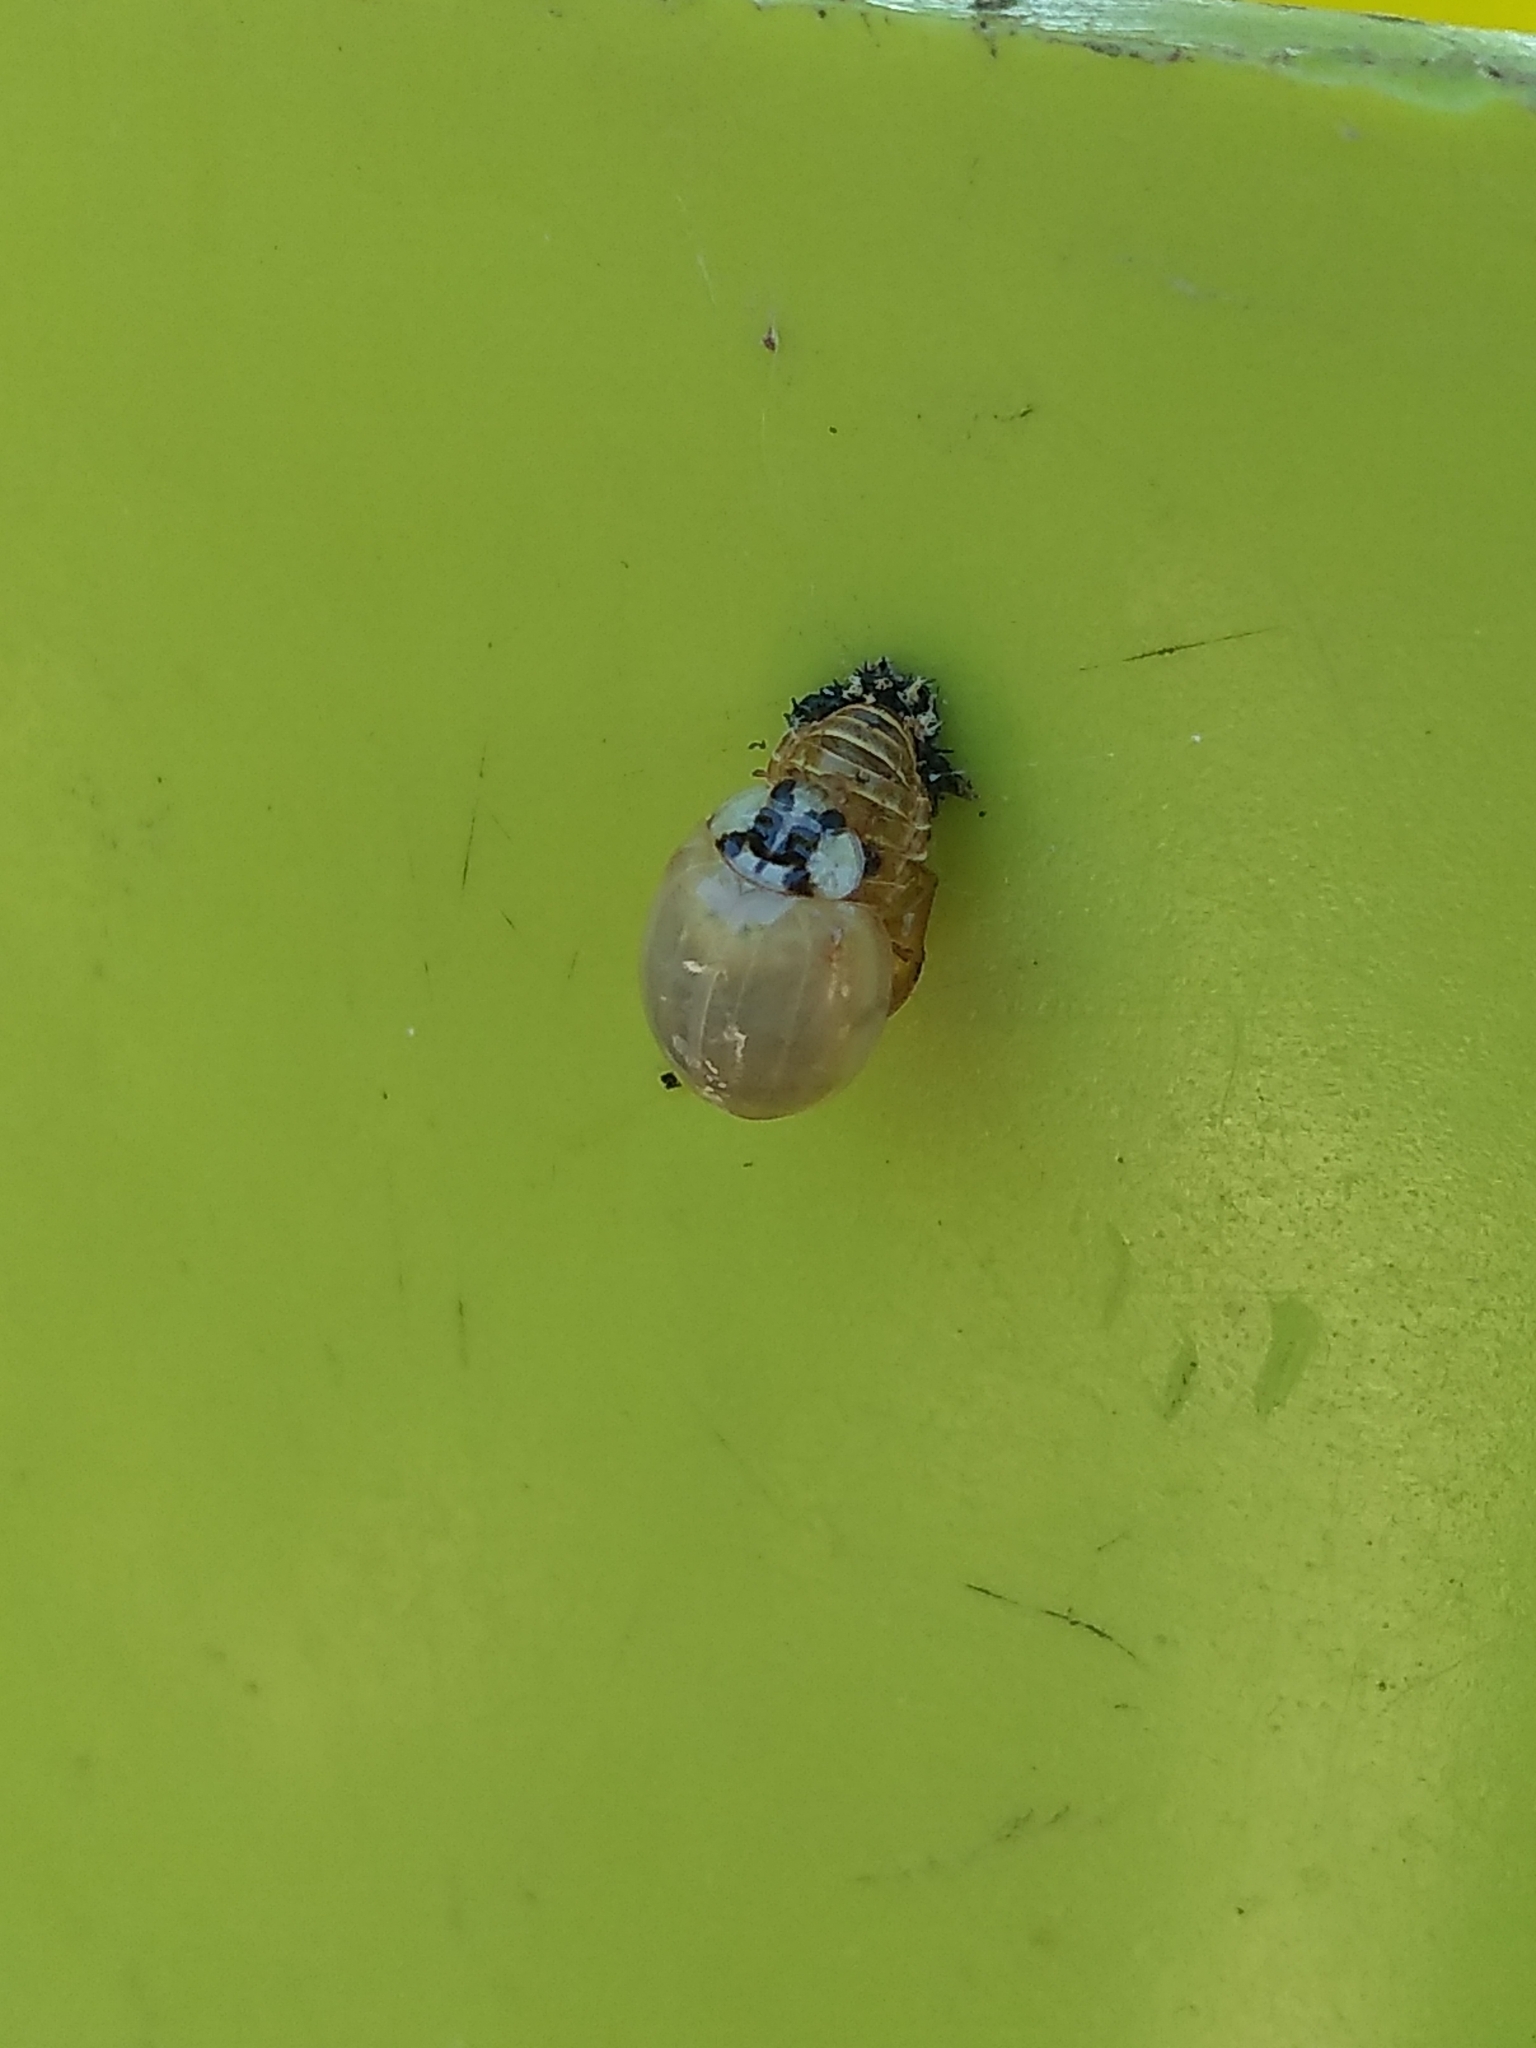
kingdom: Animalia
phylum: Arthropoda
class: Insecta
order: Coleoptera
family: Coccinellidae
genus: Harmonia
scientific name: Harmonia axyridis
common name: Harlequin ladybird
